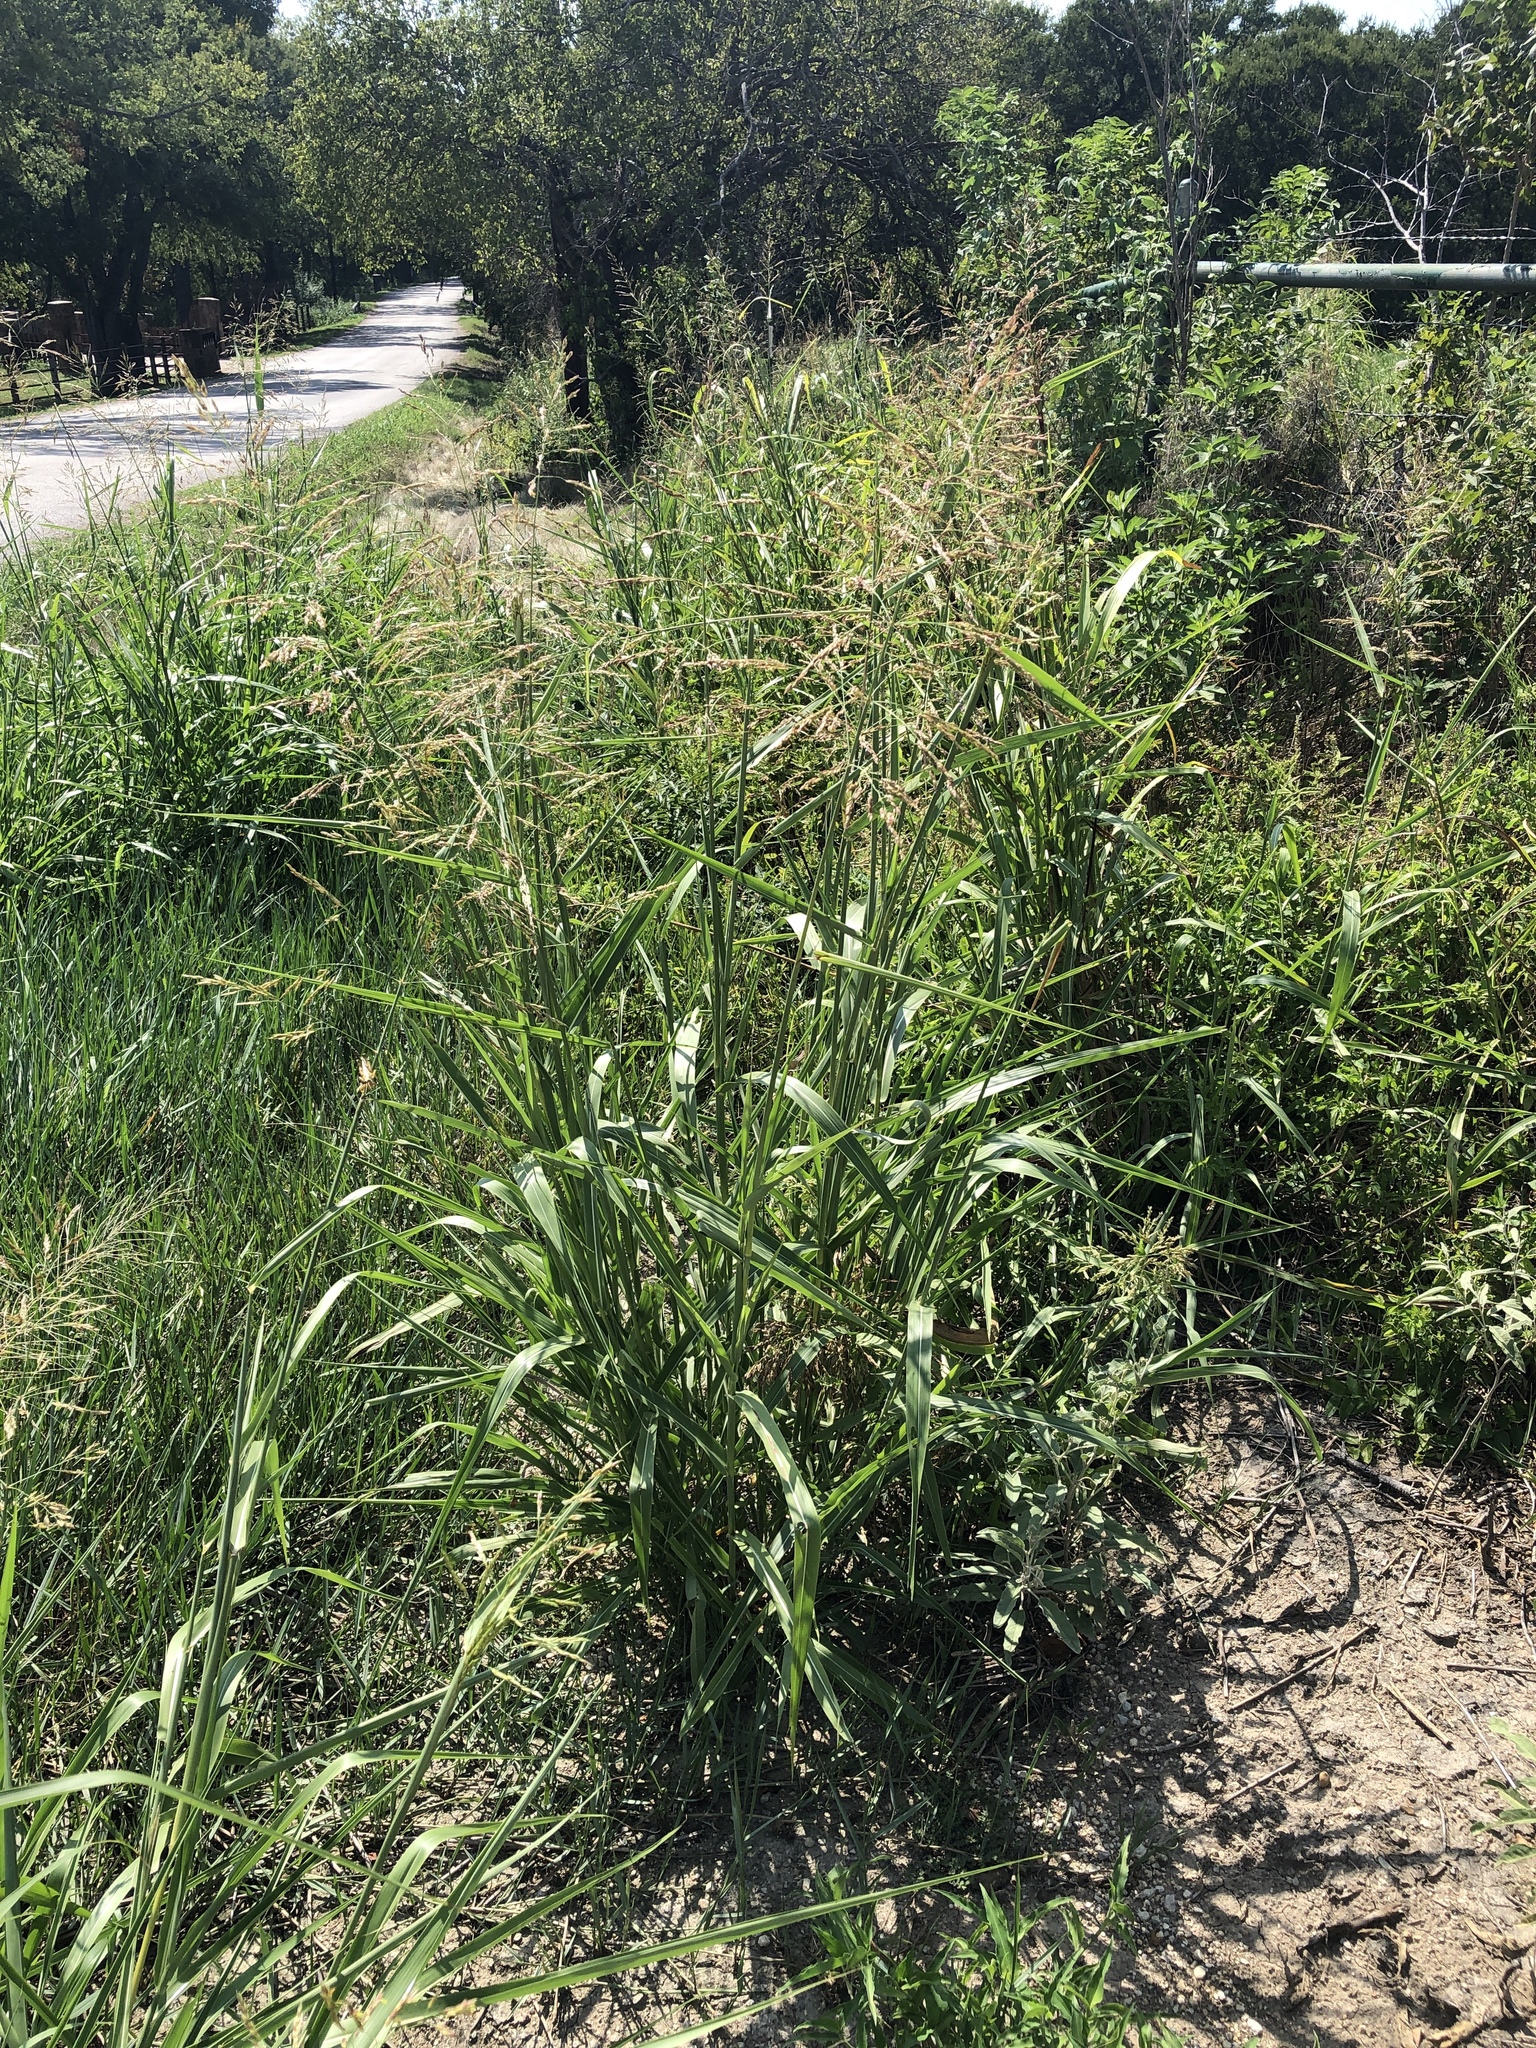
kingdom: Plantae
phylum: Tracheophyta
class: Liliopsida
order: Poales
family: Poaceae
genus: Sorghum
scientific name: Sorghum halepense
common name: Johnson-grass
